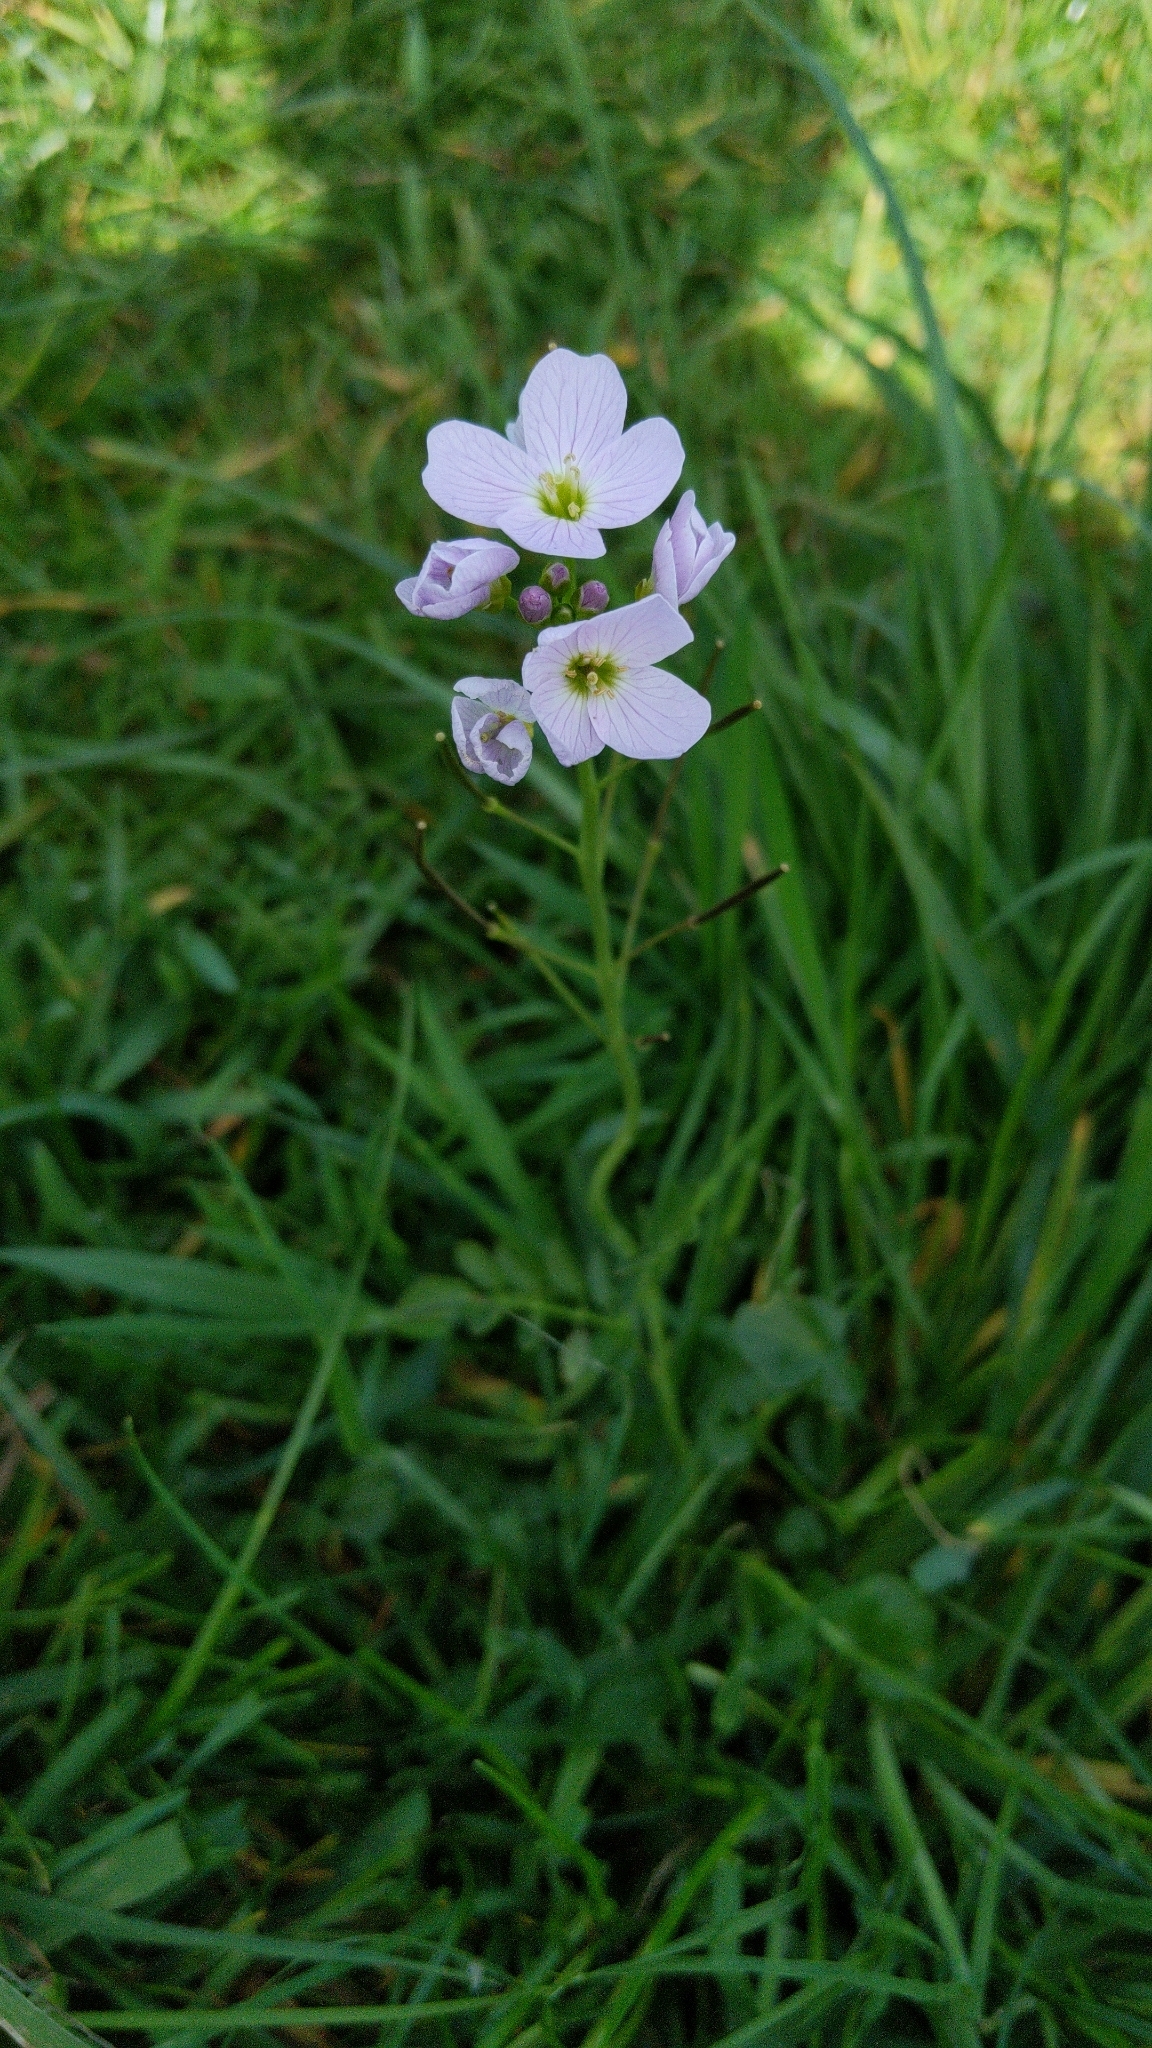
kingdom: Plantae
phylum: Tracheophyta
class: Magnoliopsida
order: Brassicales
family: Brassicaceae
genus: Cardamine
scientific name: Cardamine pratensis
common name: Cuckoo flower
